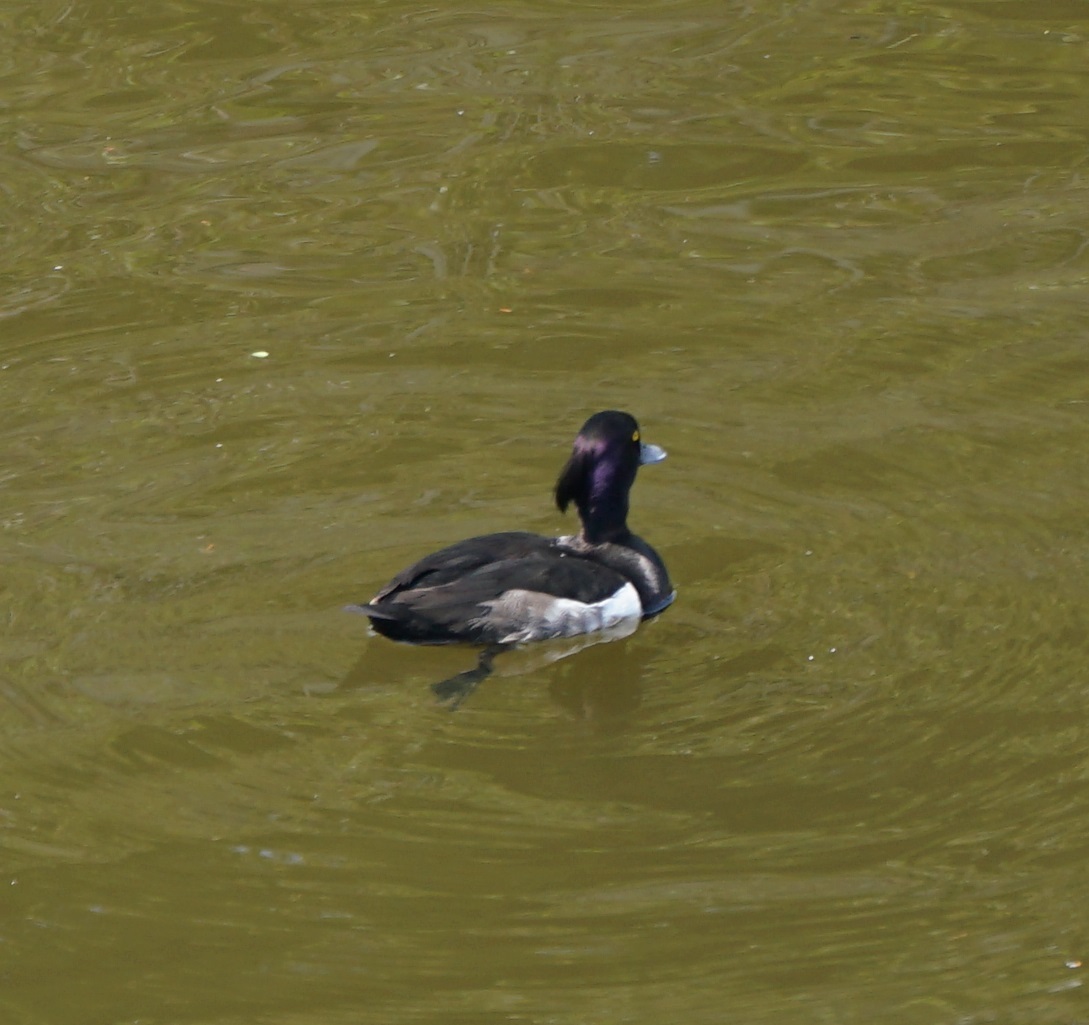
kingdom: Animalia
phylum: Chordata
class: Aves
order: Anseriformes
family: Anatidae
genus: Aythya
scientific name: Aythya fuligula
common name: Tufted duck
